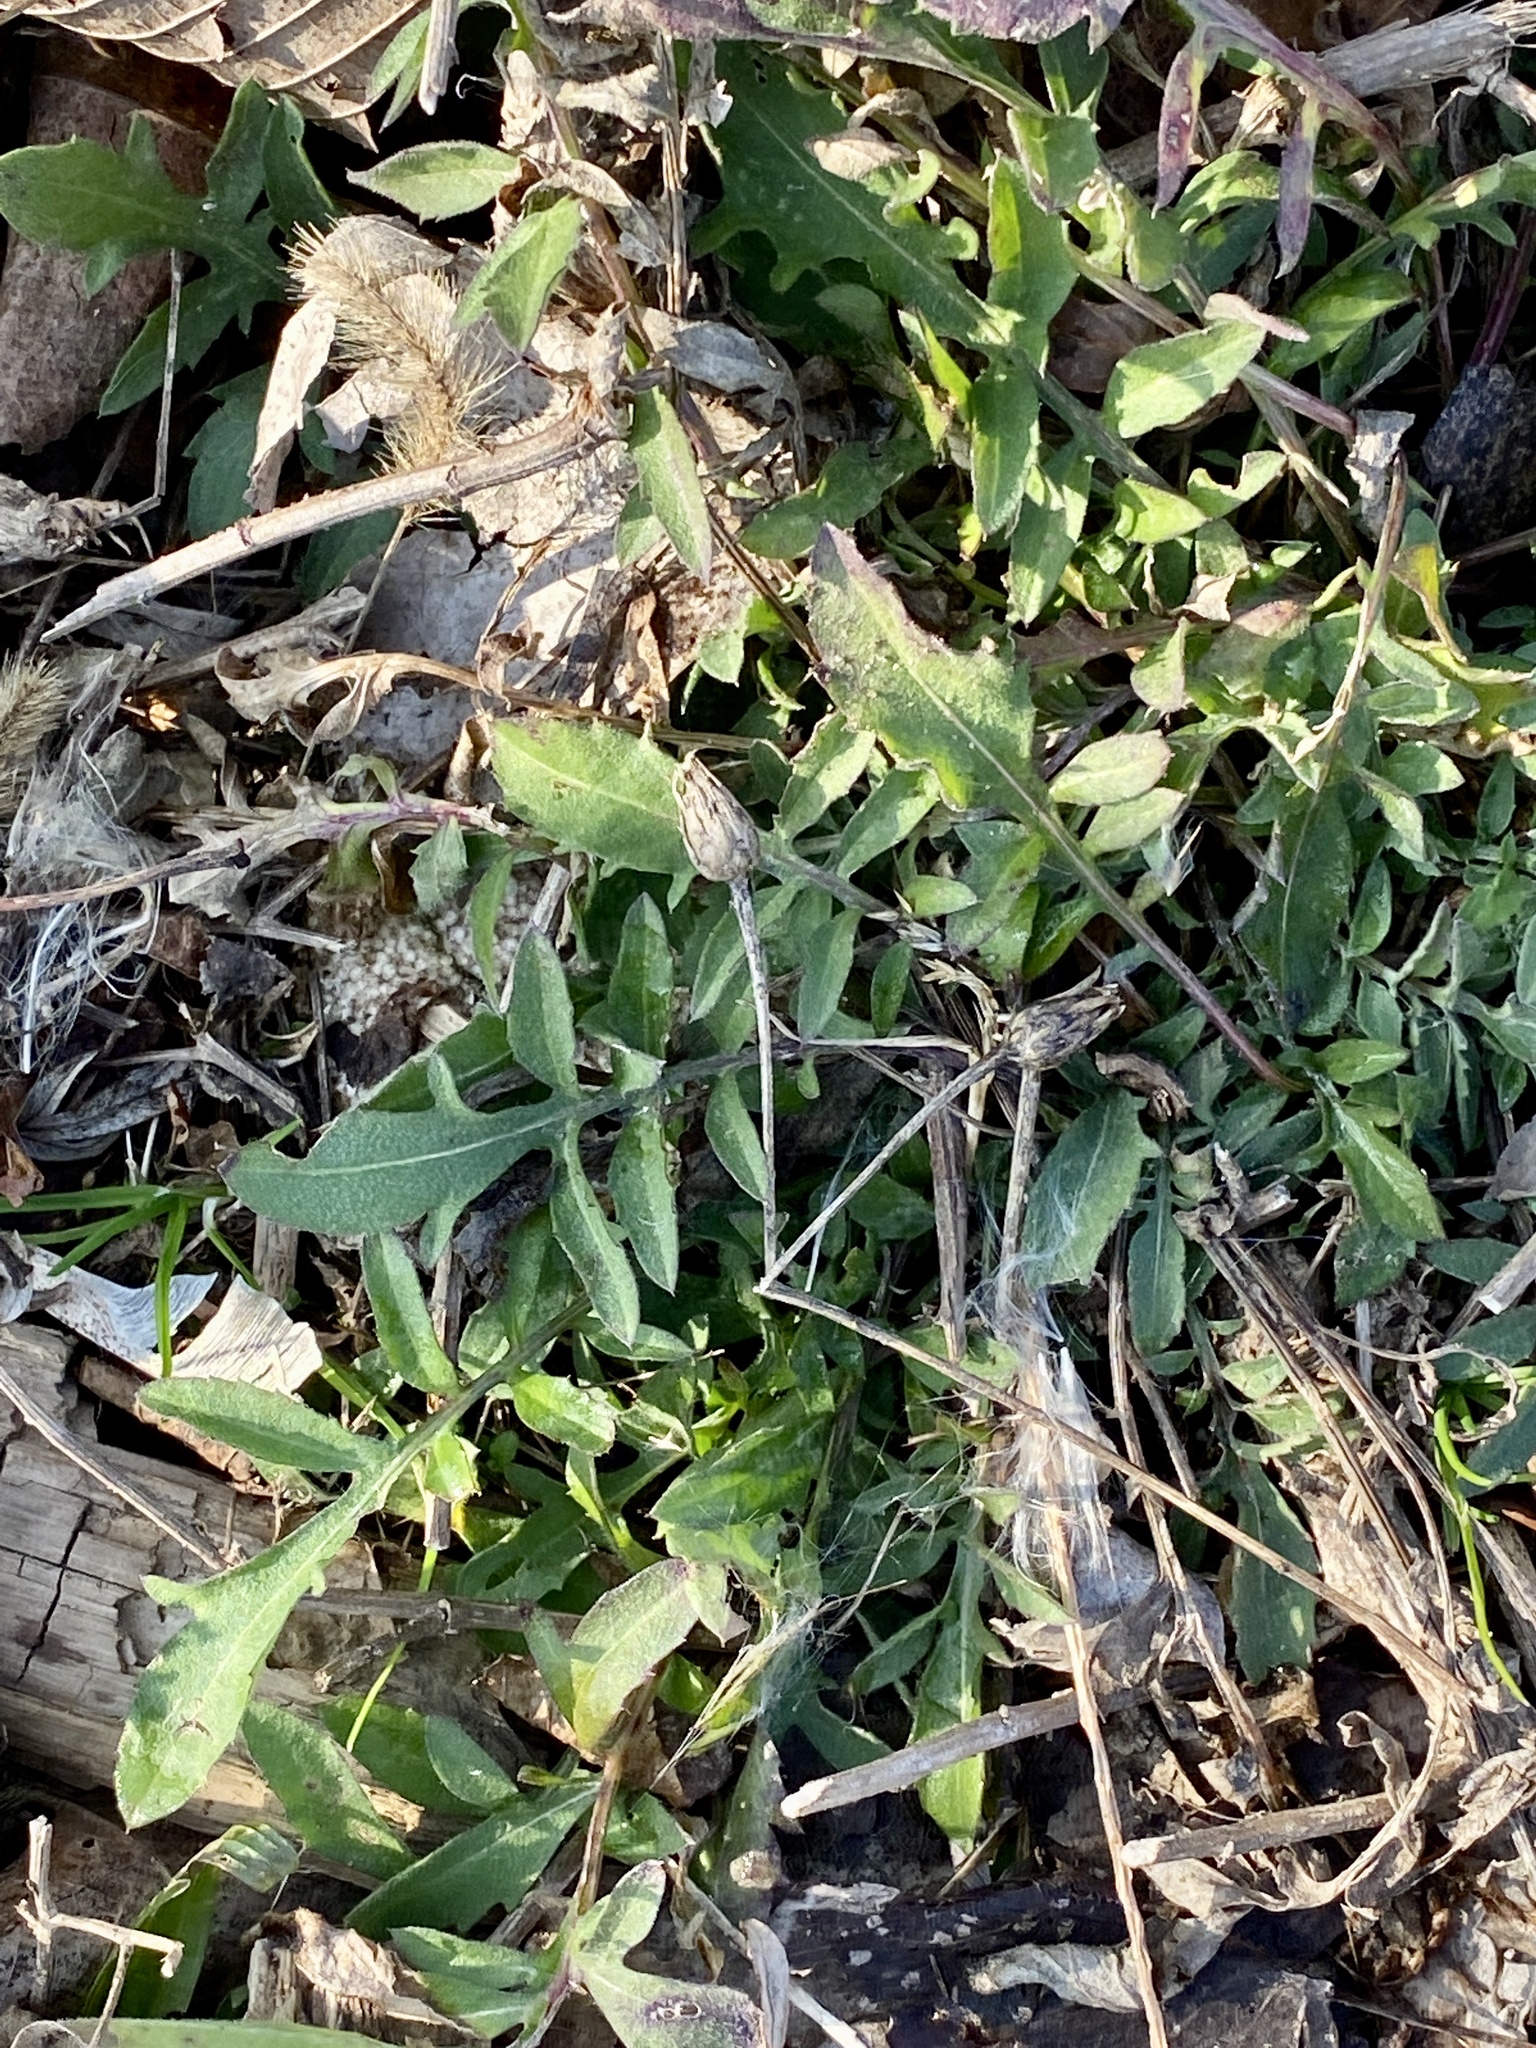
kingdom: Plantae
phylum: Tracheophyta
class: Magnoliopsida
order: Asterales
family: Asteraceae
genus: Centaurea
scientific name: Centaurea stoebe
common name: Spotted knapweed
